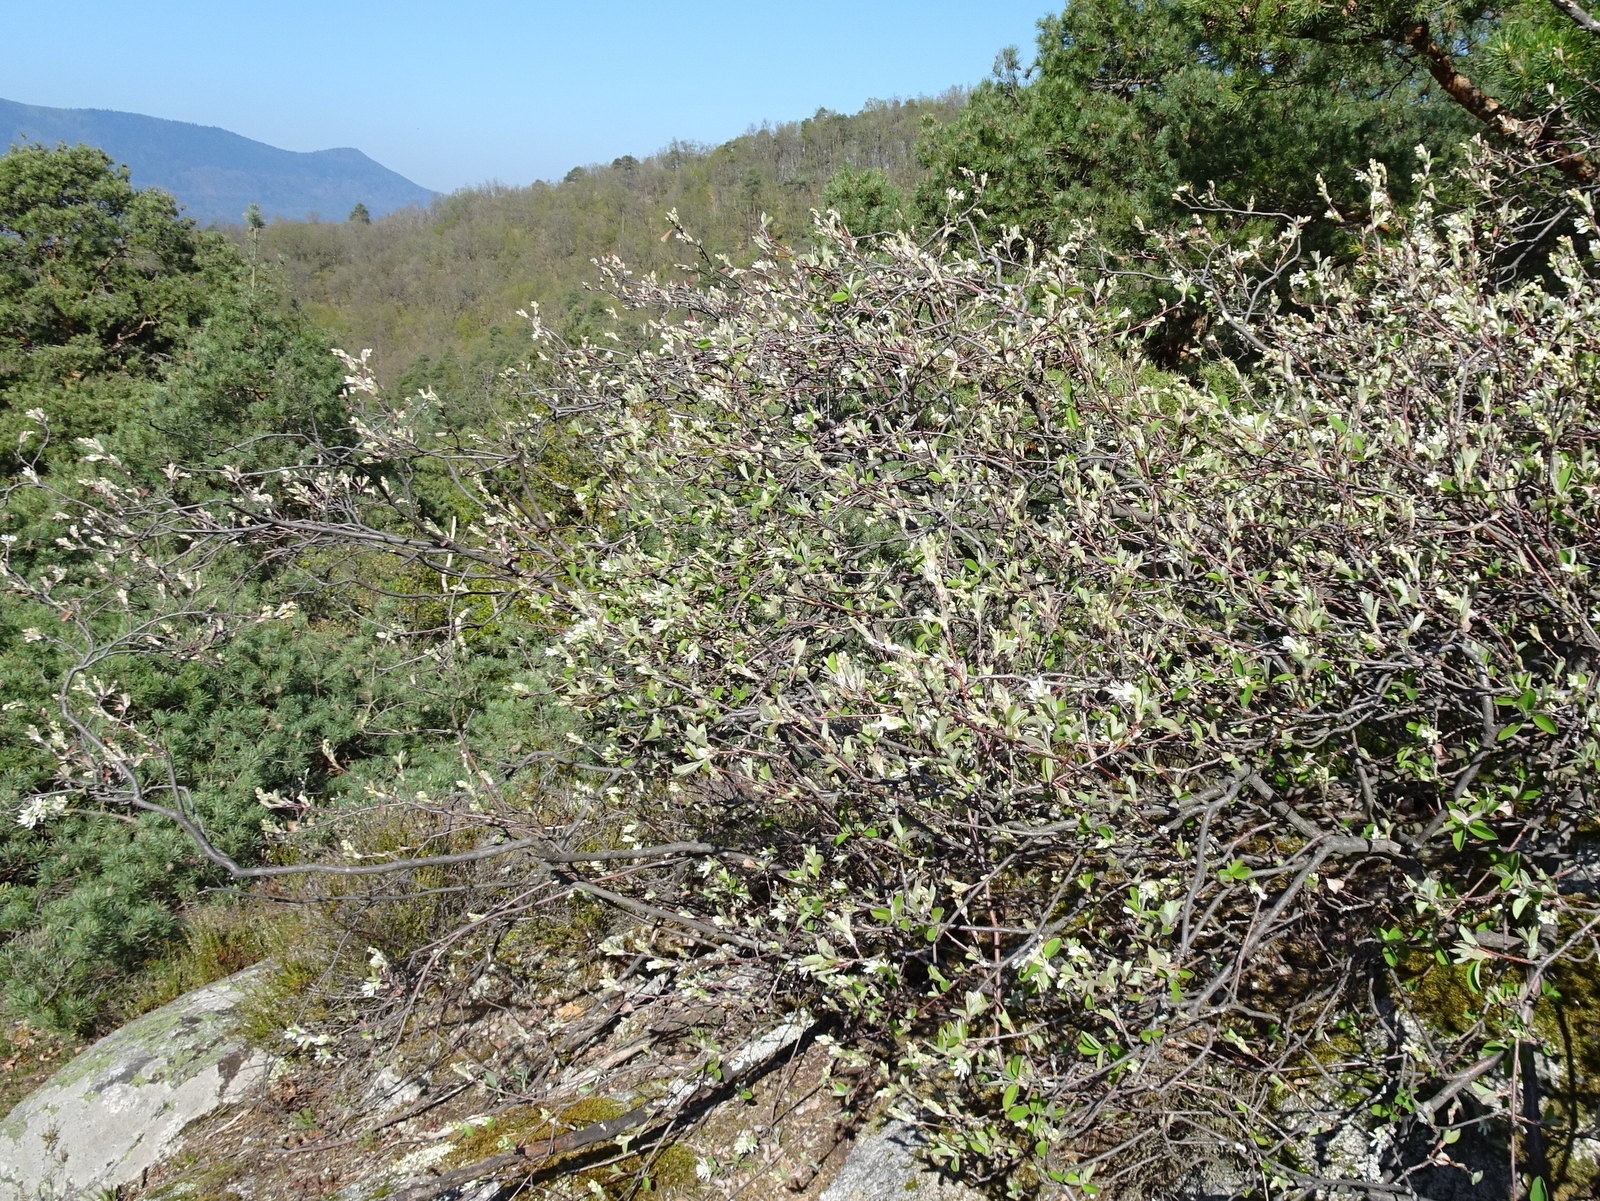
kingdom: Plantae
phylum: Tracheophyta
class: Magnoliopsida
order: Rosales
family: Rosaceae
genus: Amelanchier
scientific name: Amelanchier ovalis
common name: Serviceberry
